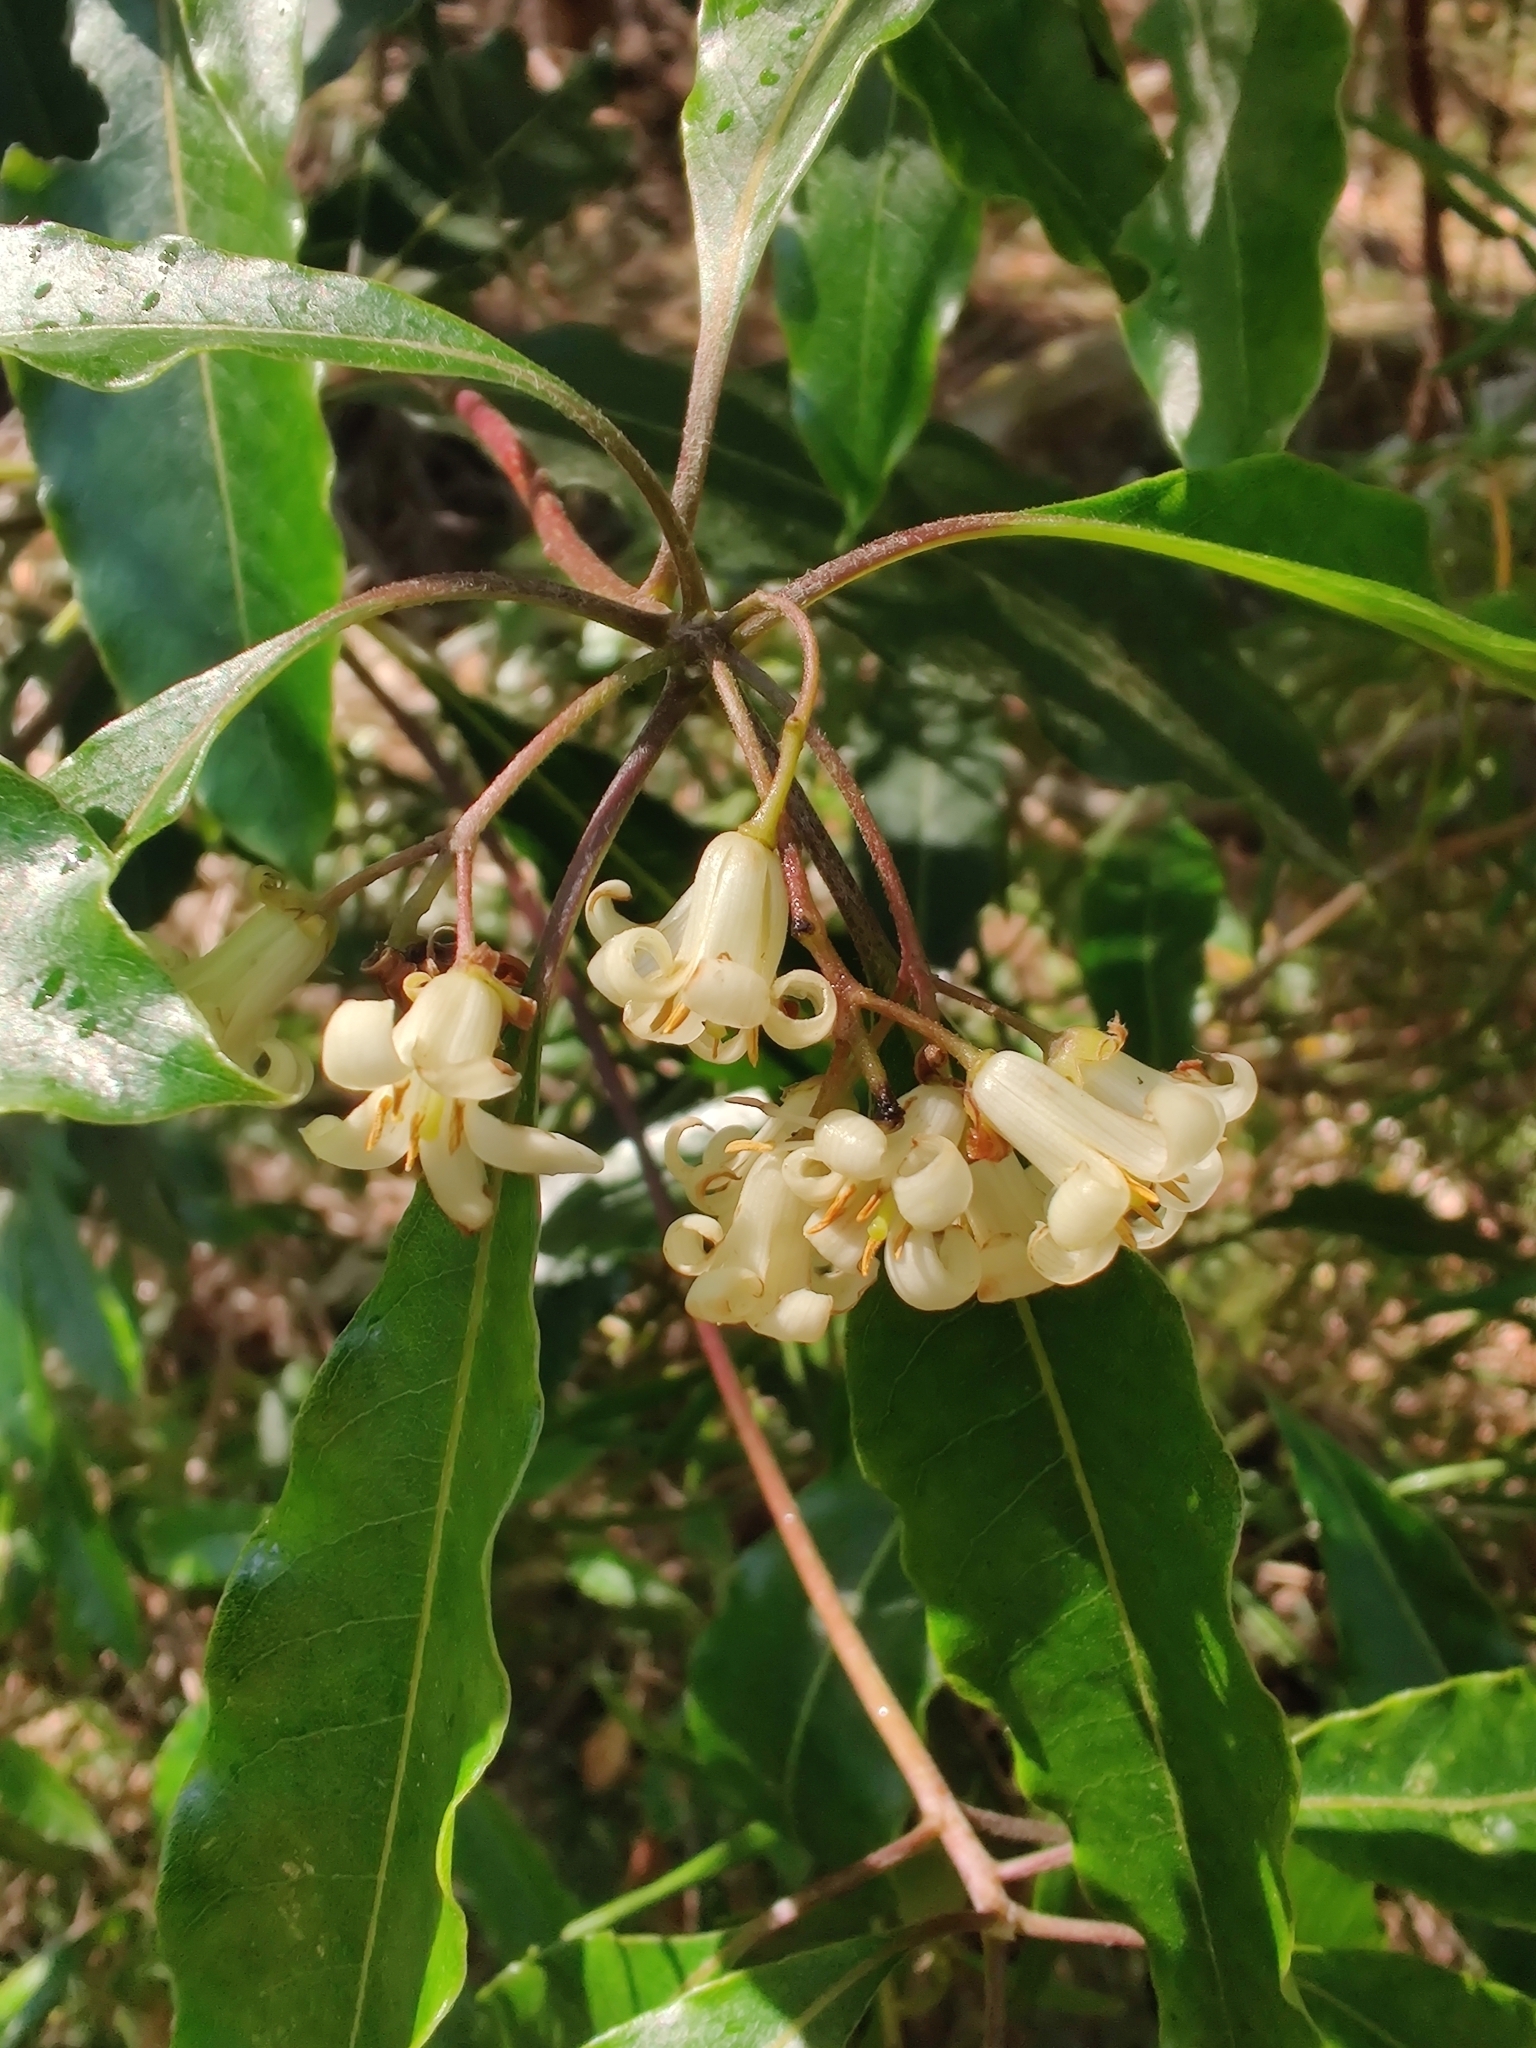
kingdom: Plantae
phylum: Tracheophyta
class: Magnoliopsida
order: Apiales
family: Pittosporaceae
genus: Pittosporum
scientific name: Pittosporum undulatum
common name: Australian cheesewood
